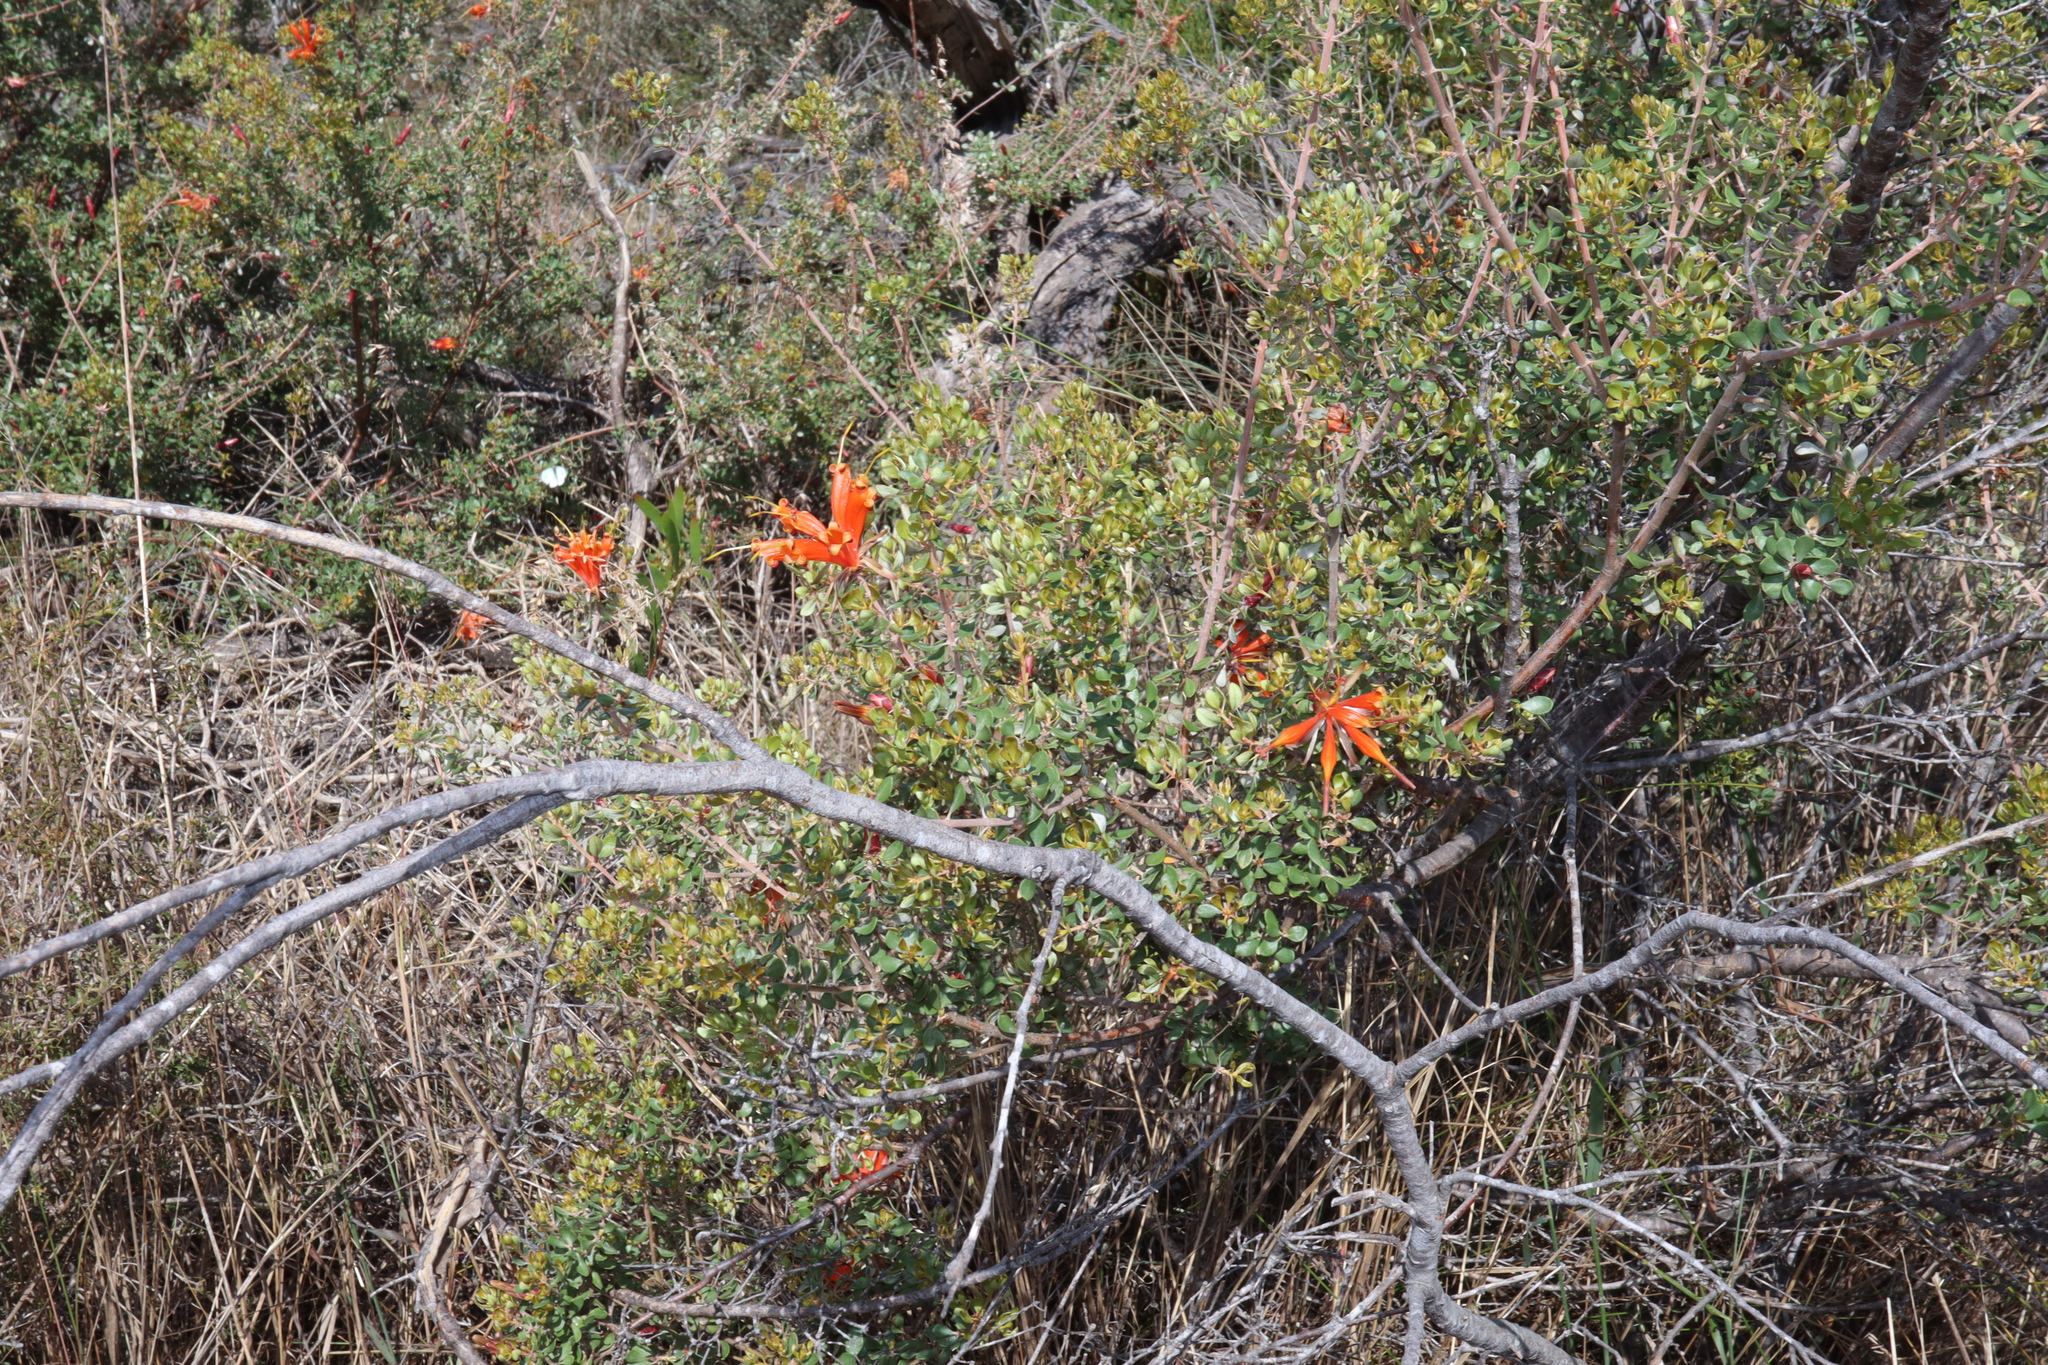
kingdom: Plantae
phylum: Tracheophyta
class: Magnoliopsida
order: Proteales
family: Proteaceae
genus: Lambertia
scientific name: Lambertia inermis
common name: Chittick
